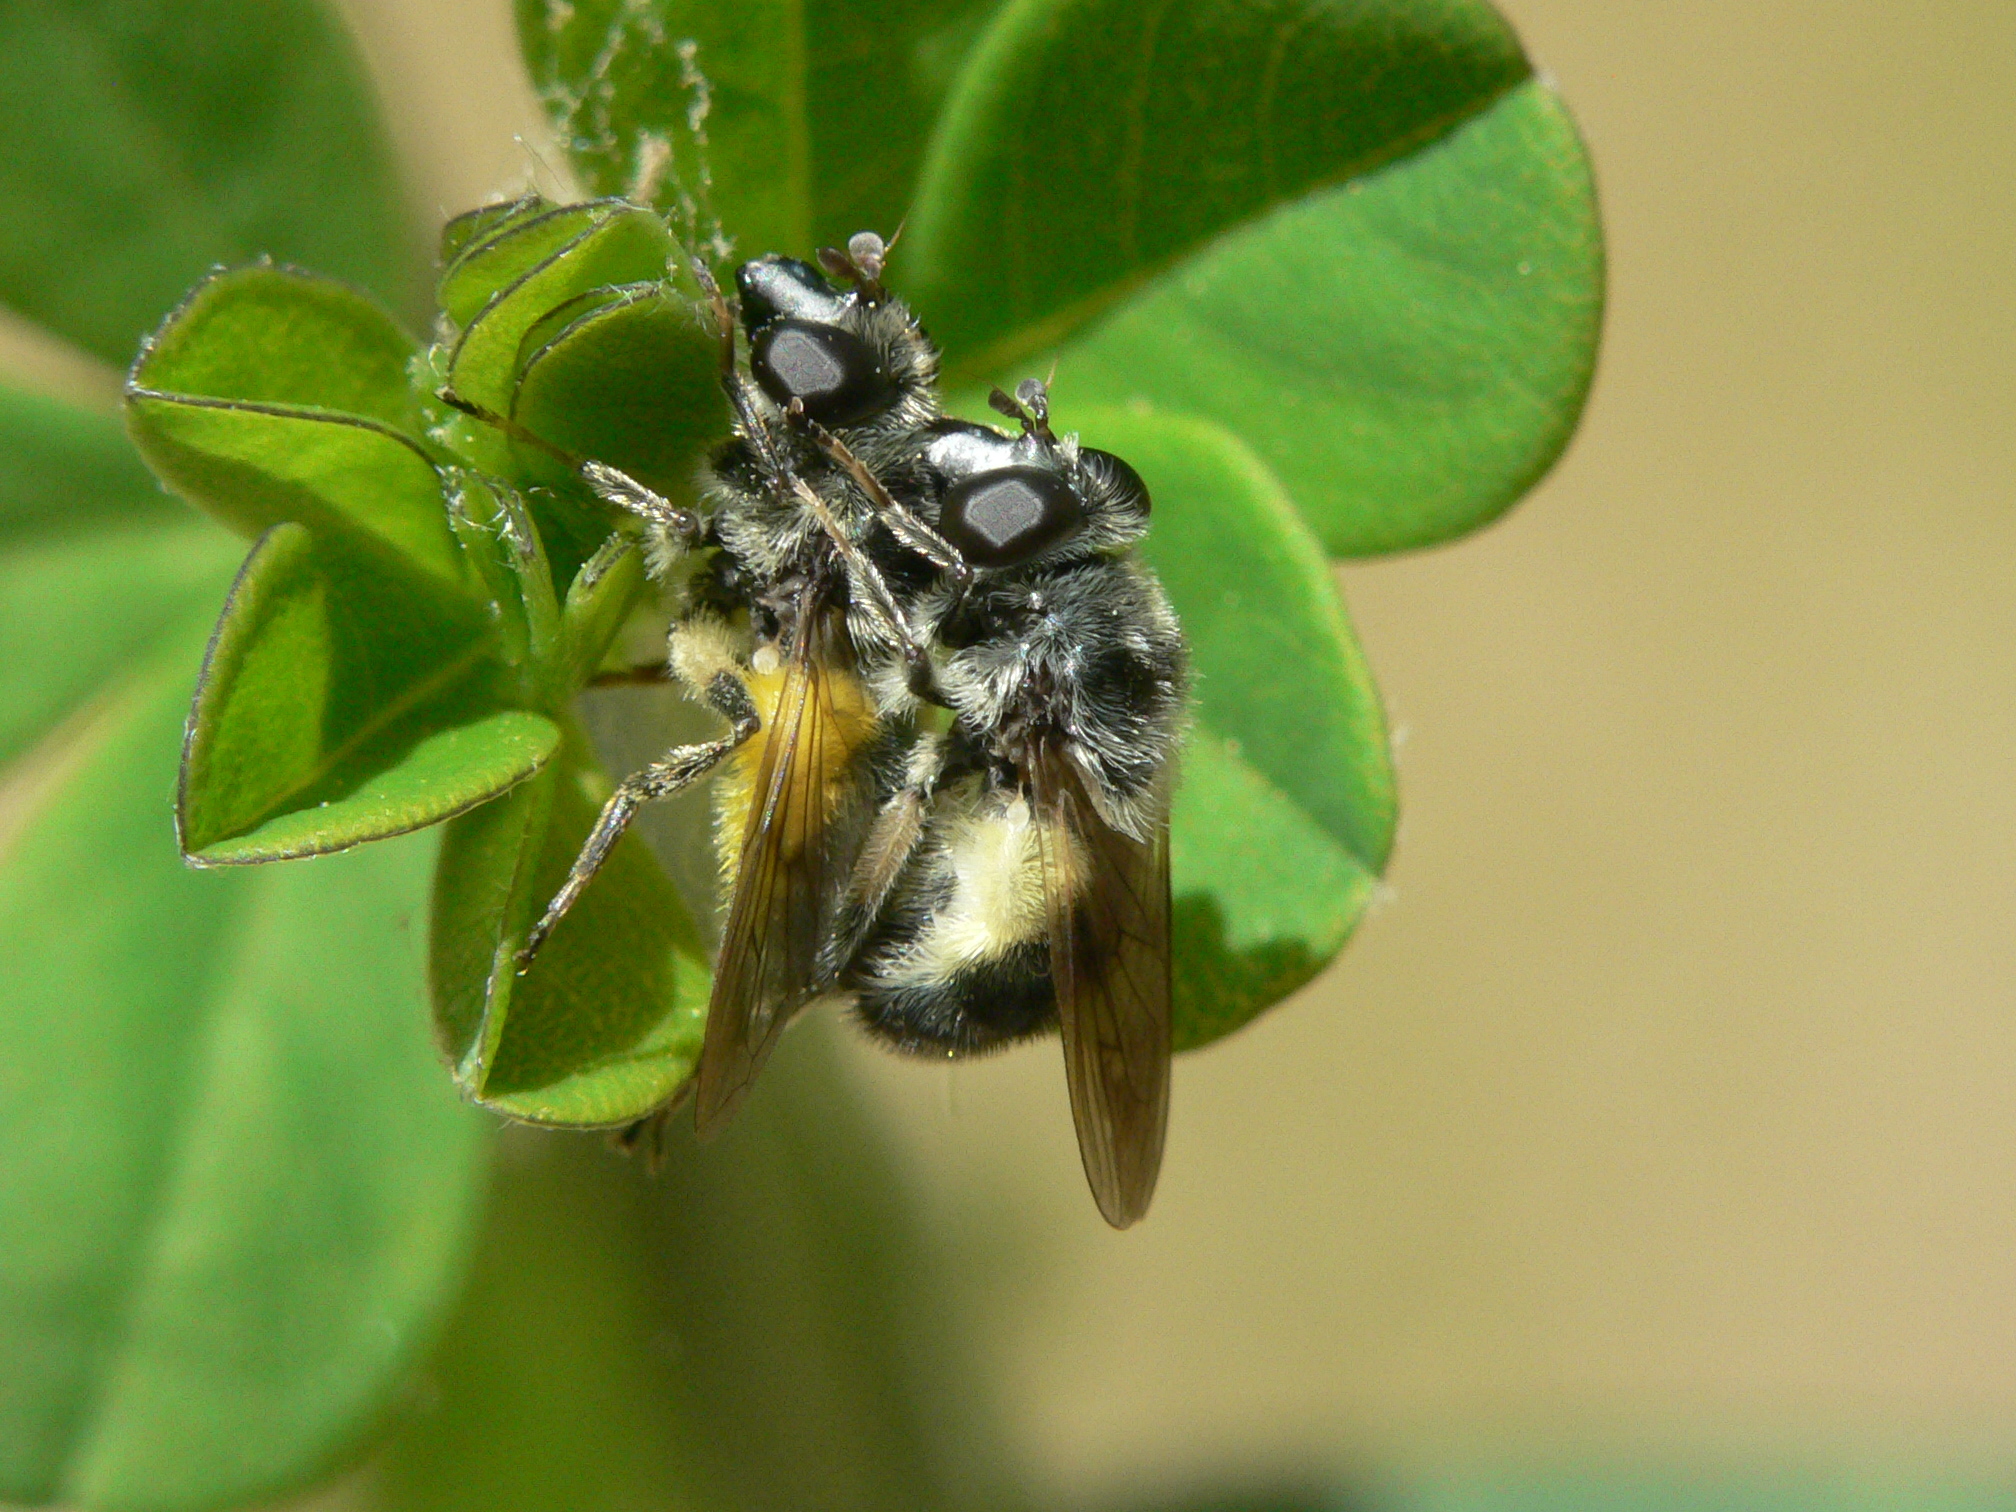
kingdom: Animalia
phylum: Arthropoda
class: Insecta
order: Diptera
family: Syrphidae
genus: Blera
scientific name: Blera umbratilis
